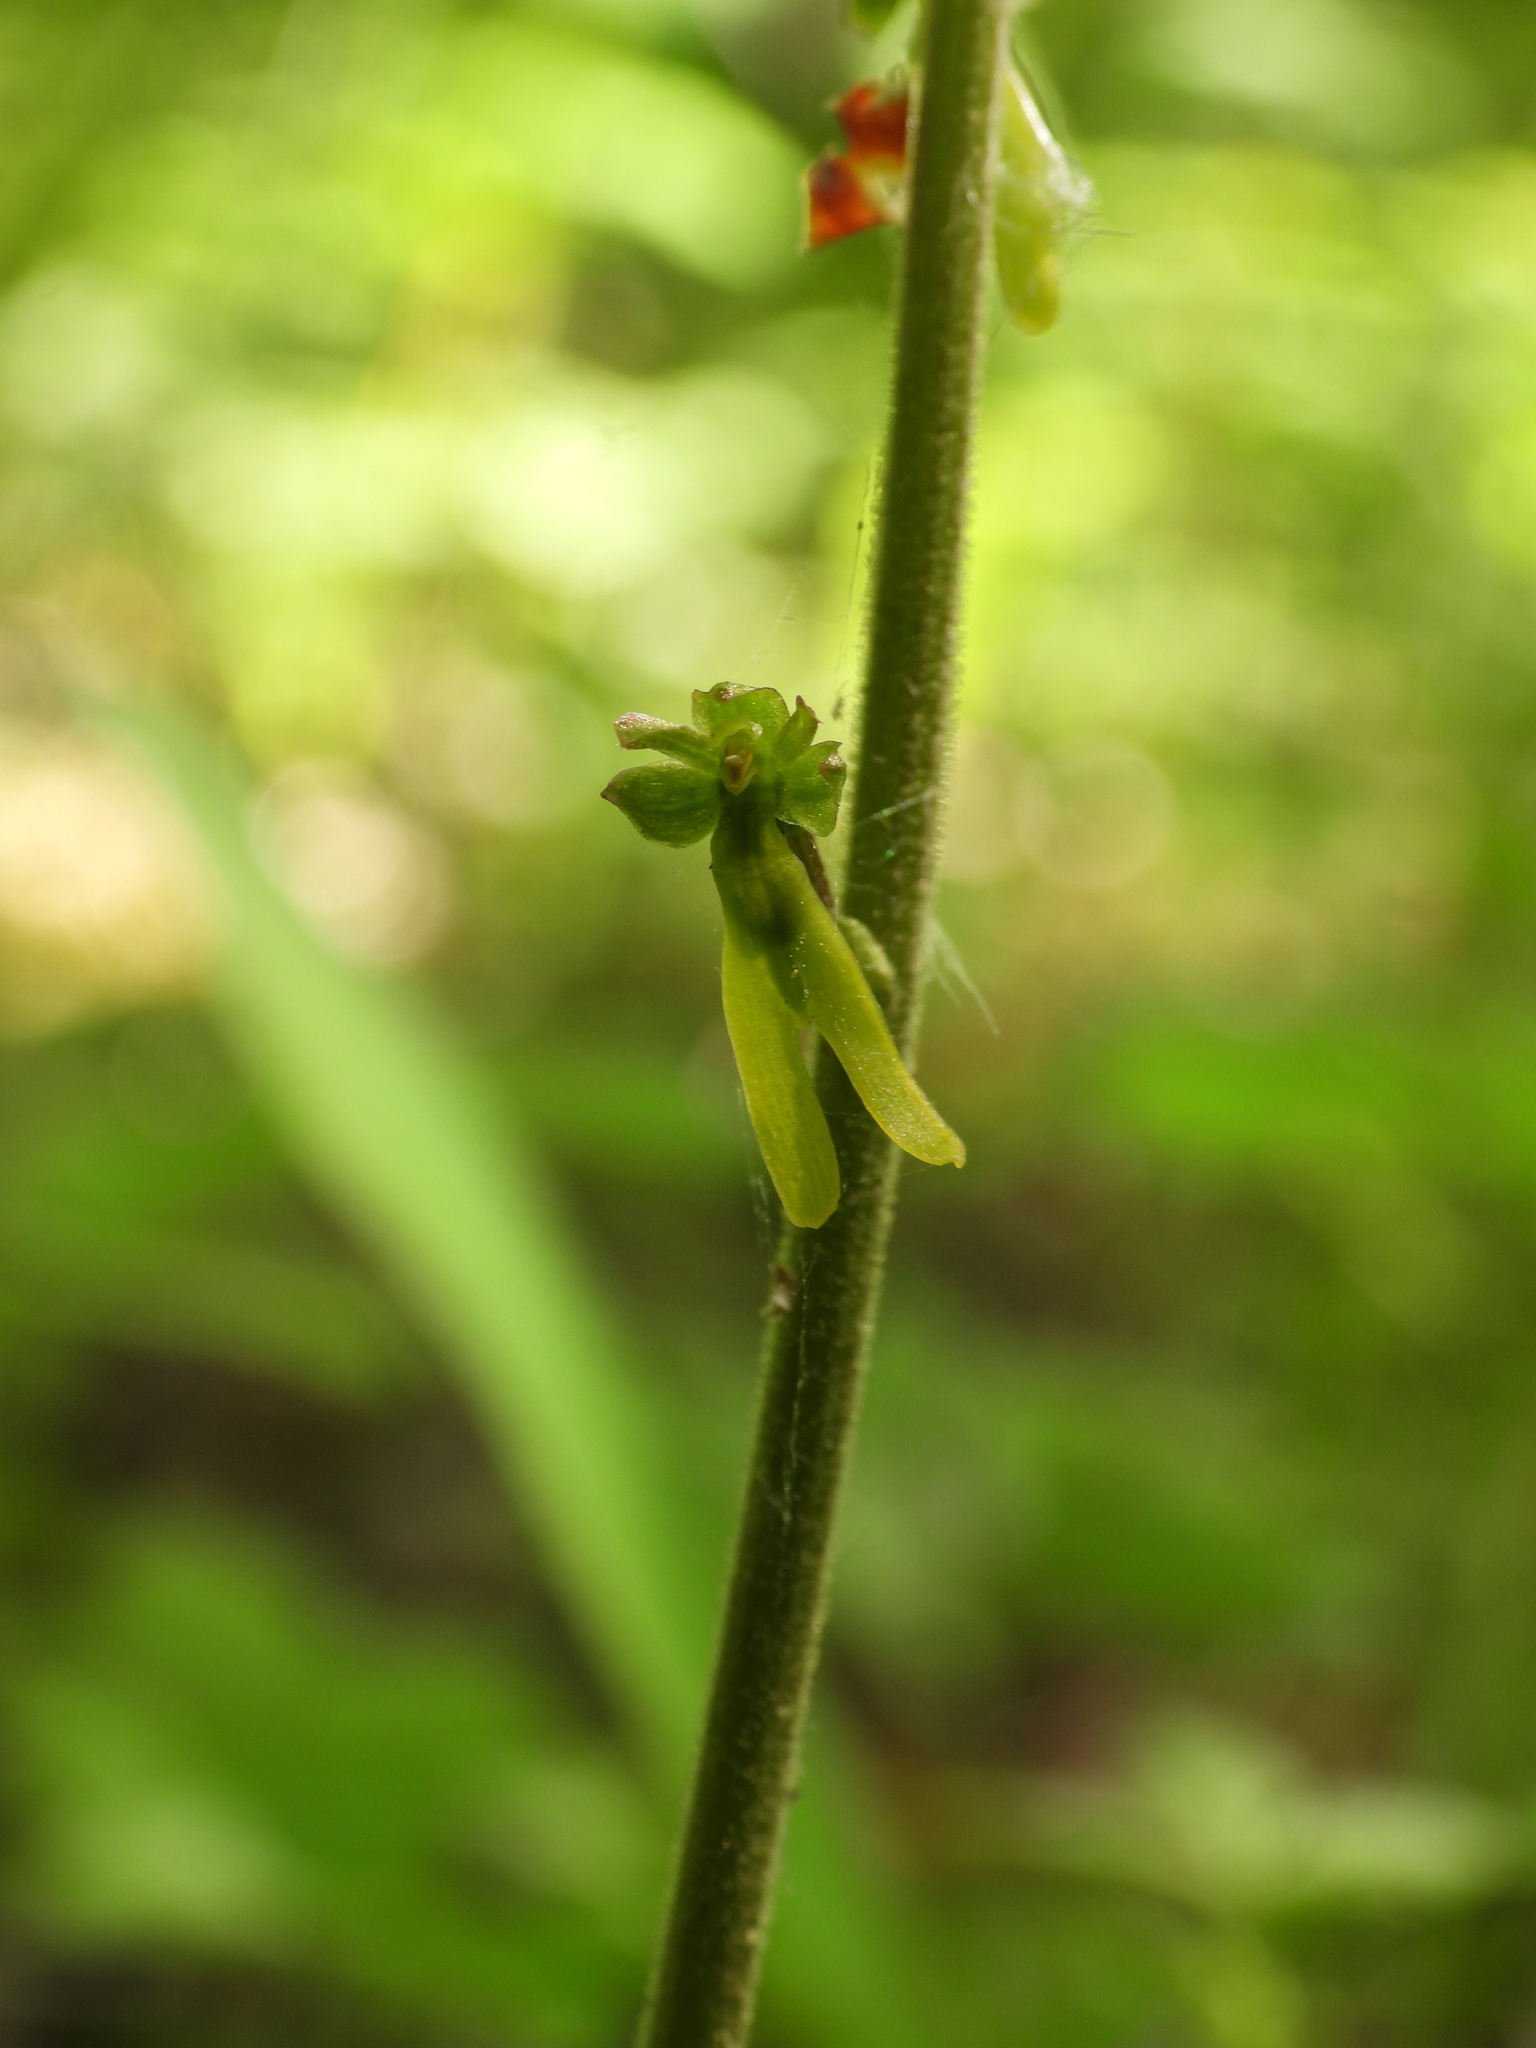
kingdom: Plantae
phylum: Tracheophyta
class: Liliopsida
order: Asparagales
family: Orchidaceae
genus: Neottia
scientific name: Neottia ovata
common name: Common twayblade
